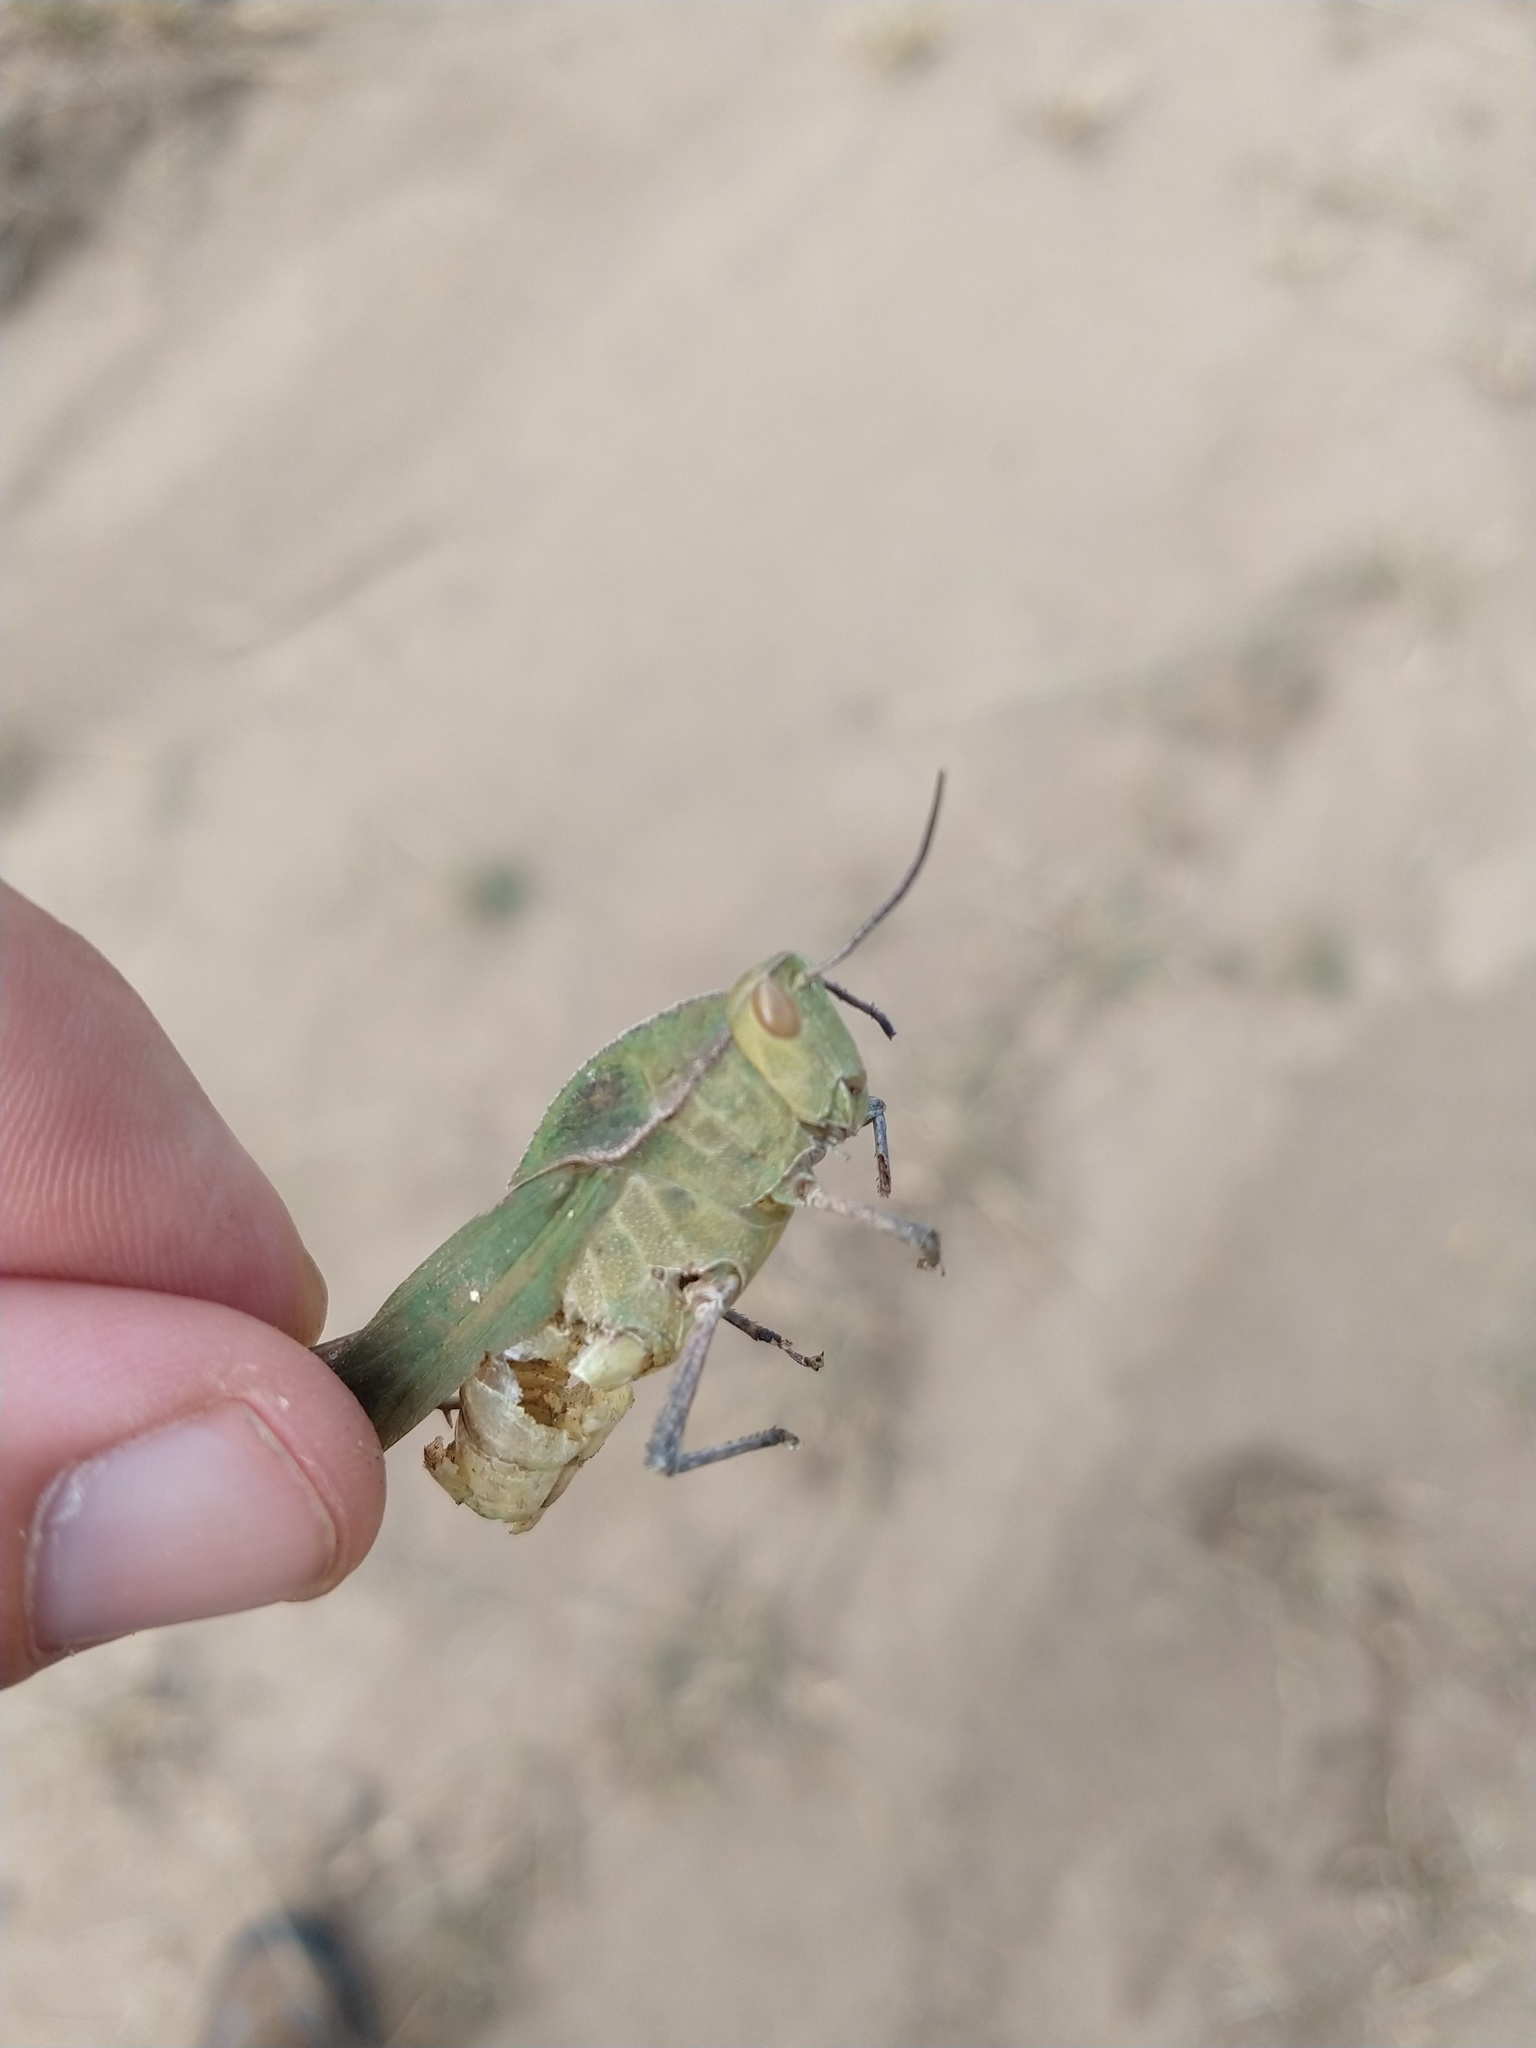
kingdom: Animalia
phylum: Arthropoda
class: Insecta
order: Orthoptera
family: Romaleidae
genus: Xyleus
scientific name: Xyleus insignis
